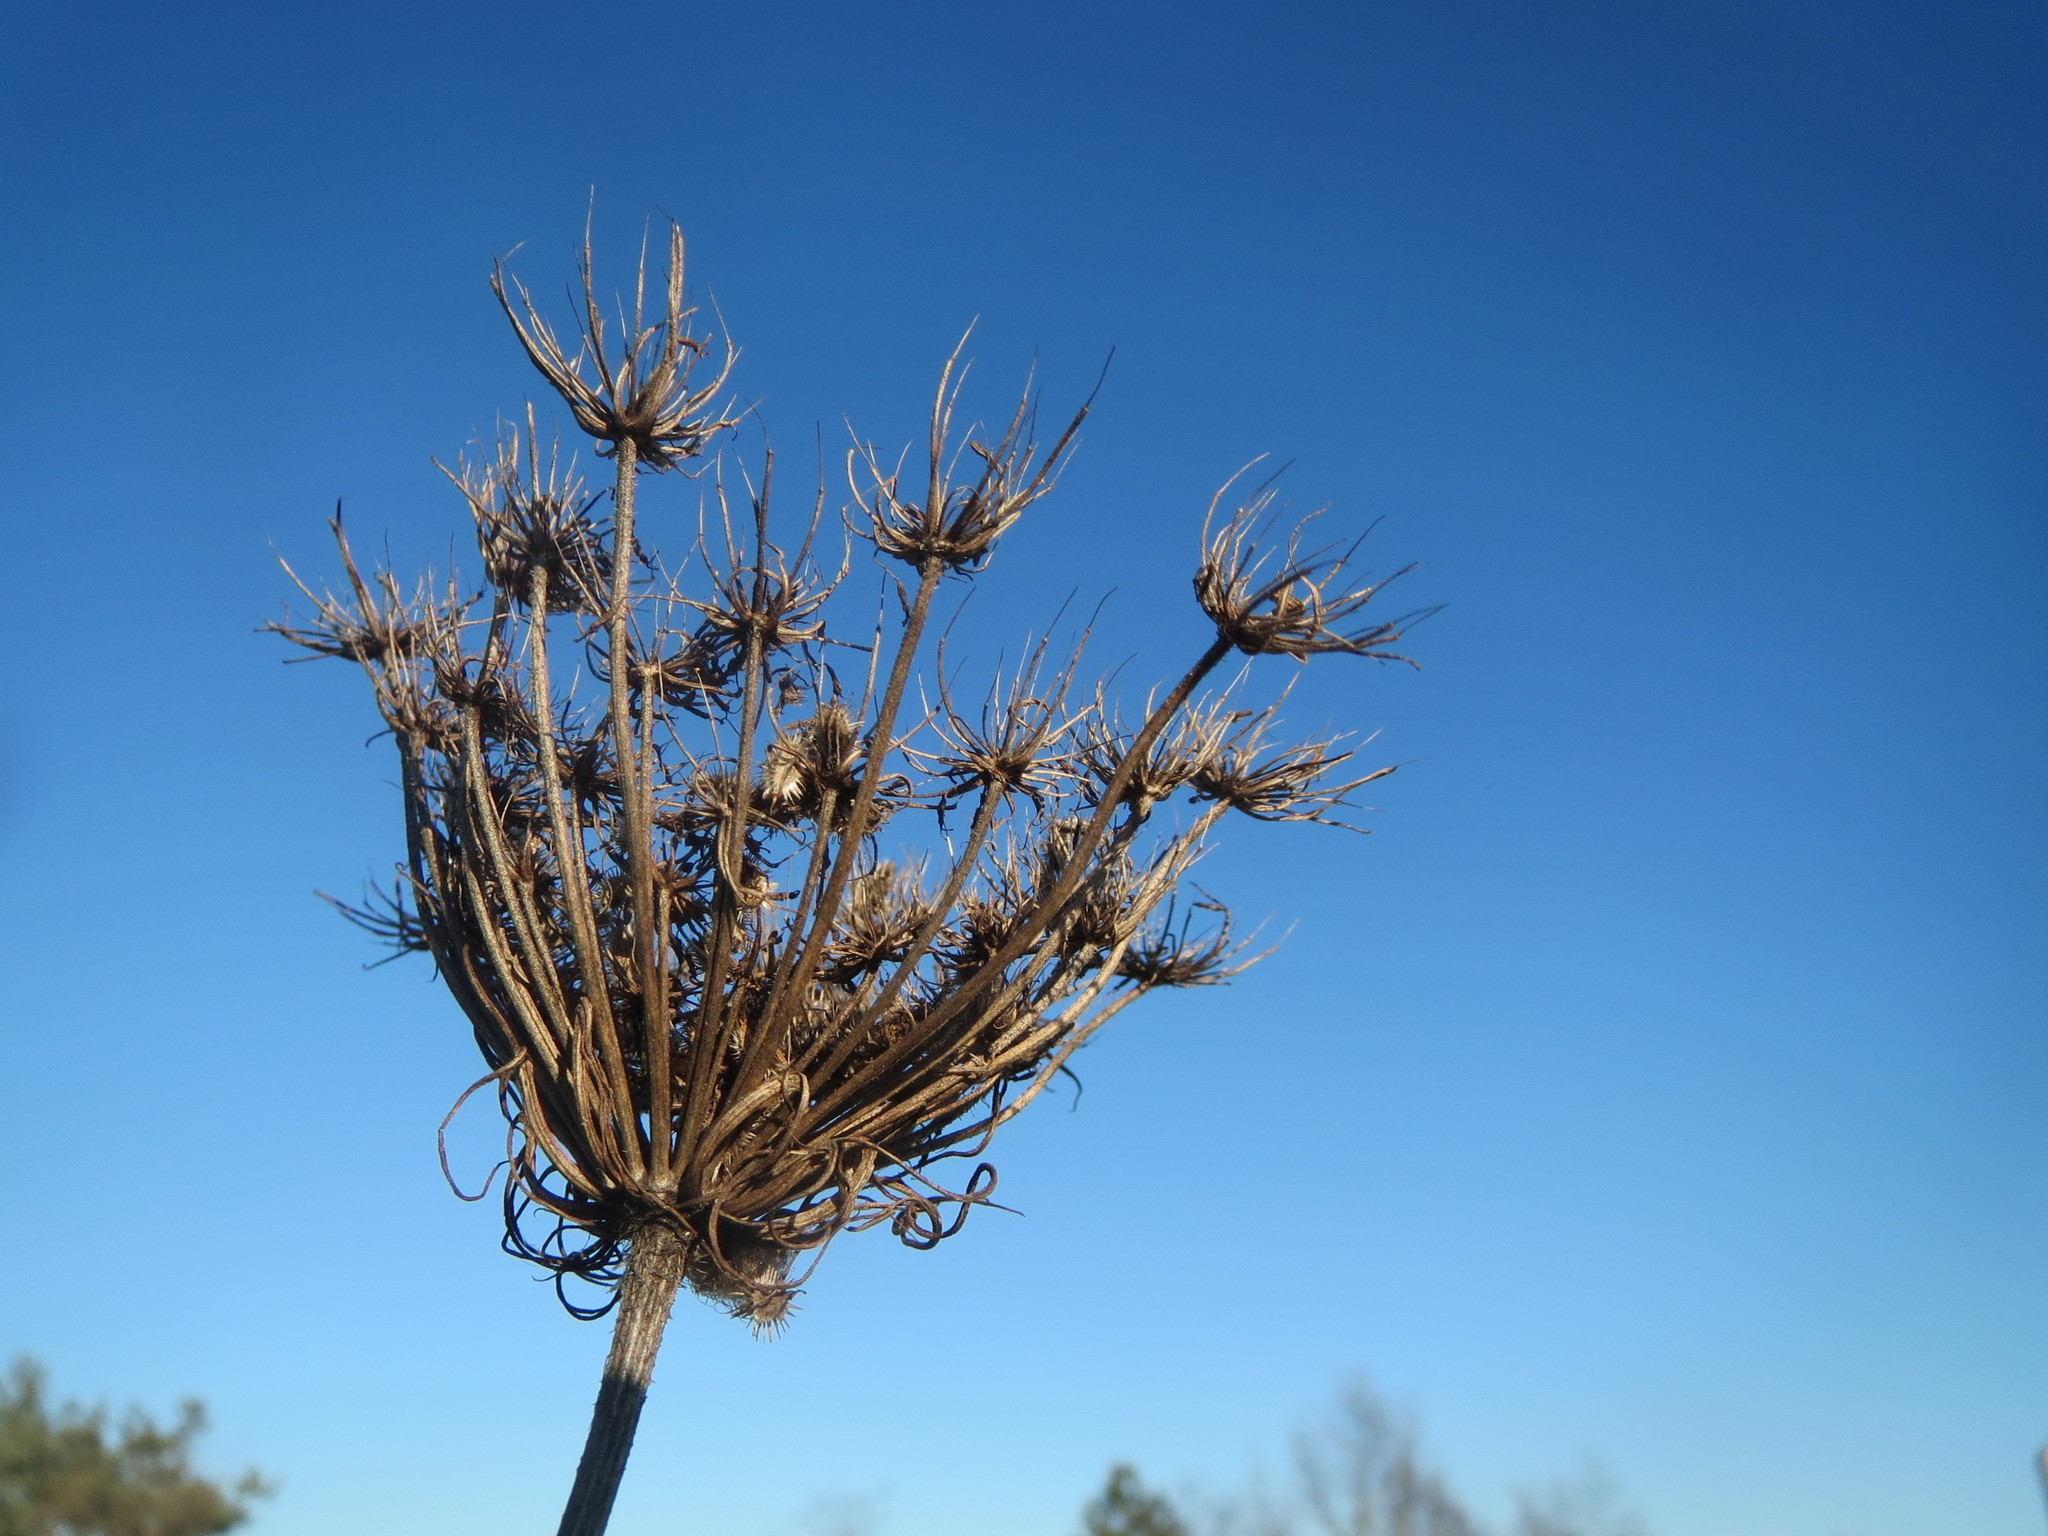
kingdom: Plantae
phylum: Tracheophyta
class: Magnoliopsida
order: Apiales
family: Apiaceae
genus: Daucus
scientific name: Daucus carota
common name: Wild carrot
